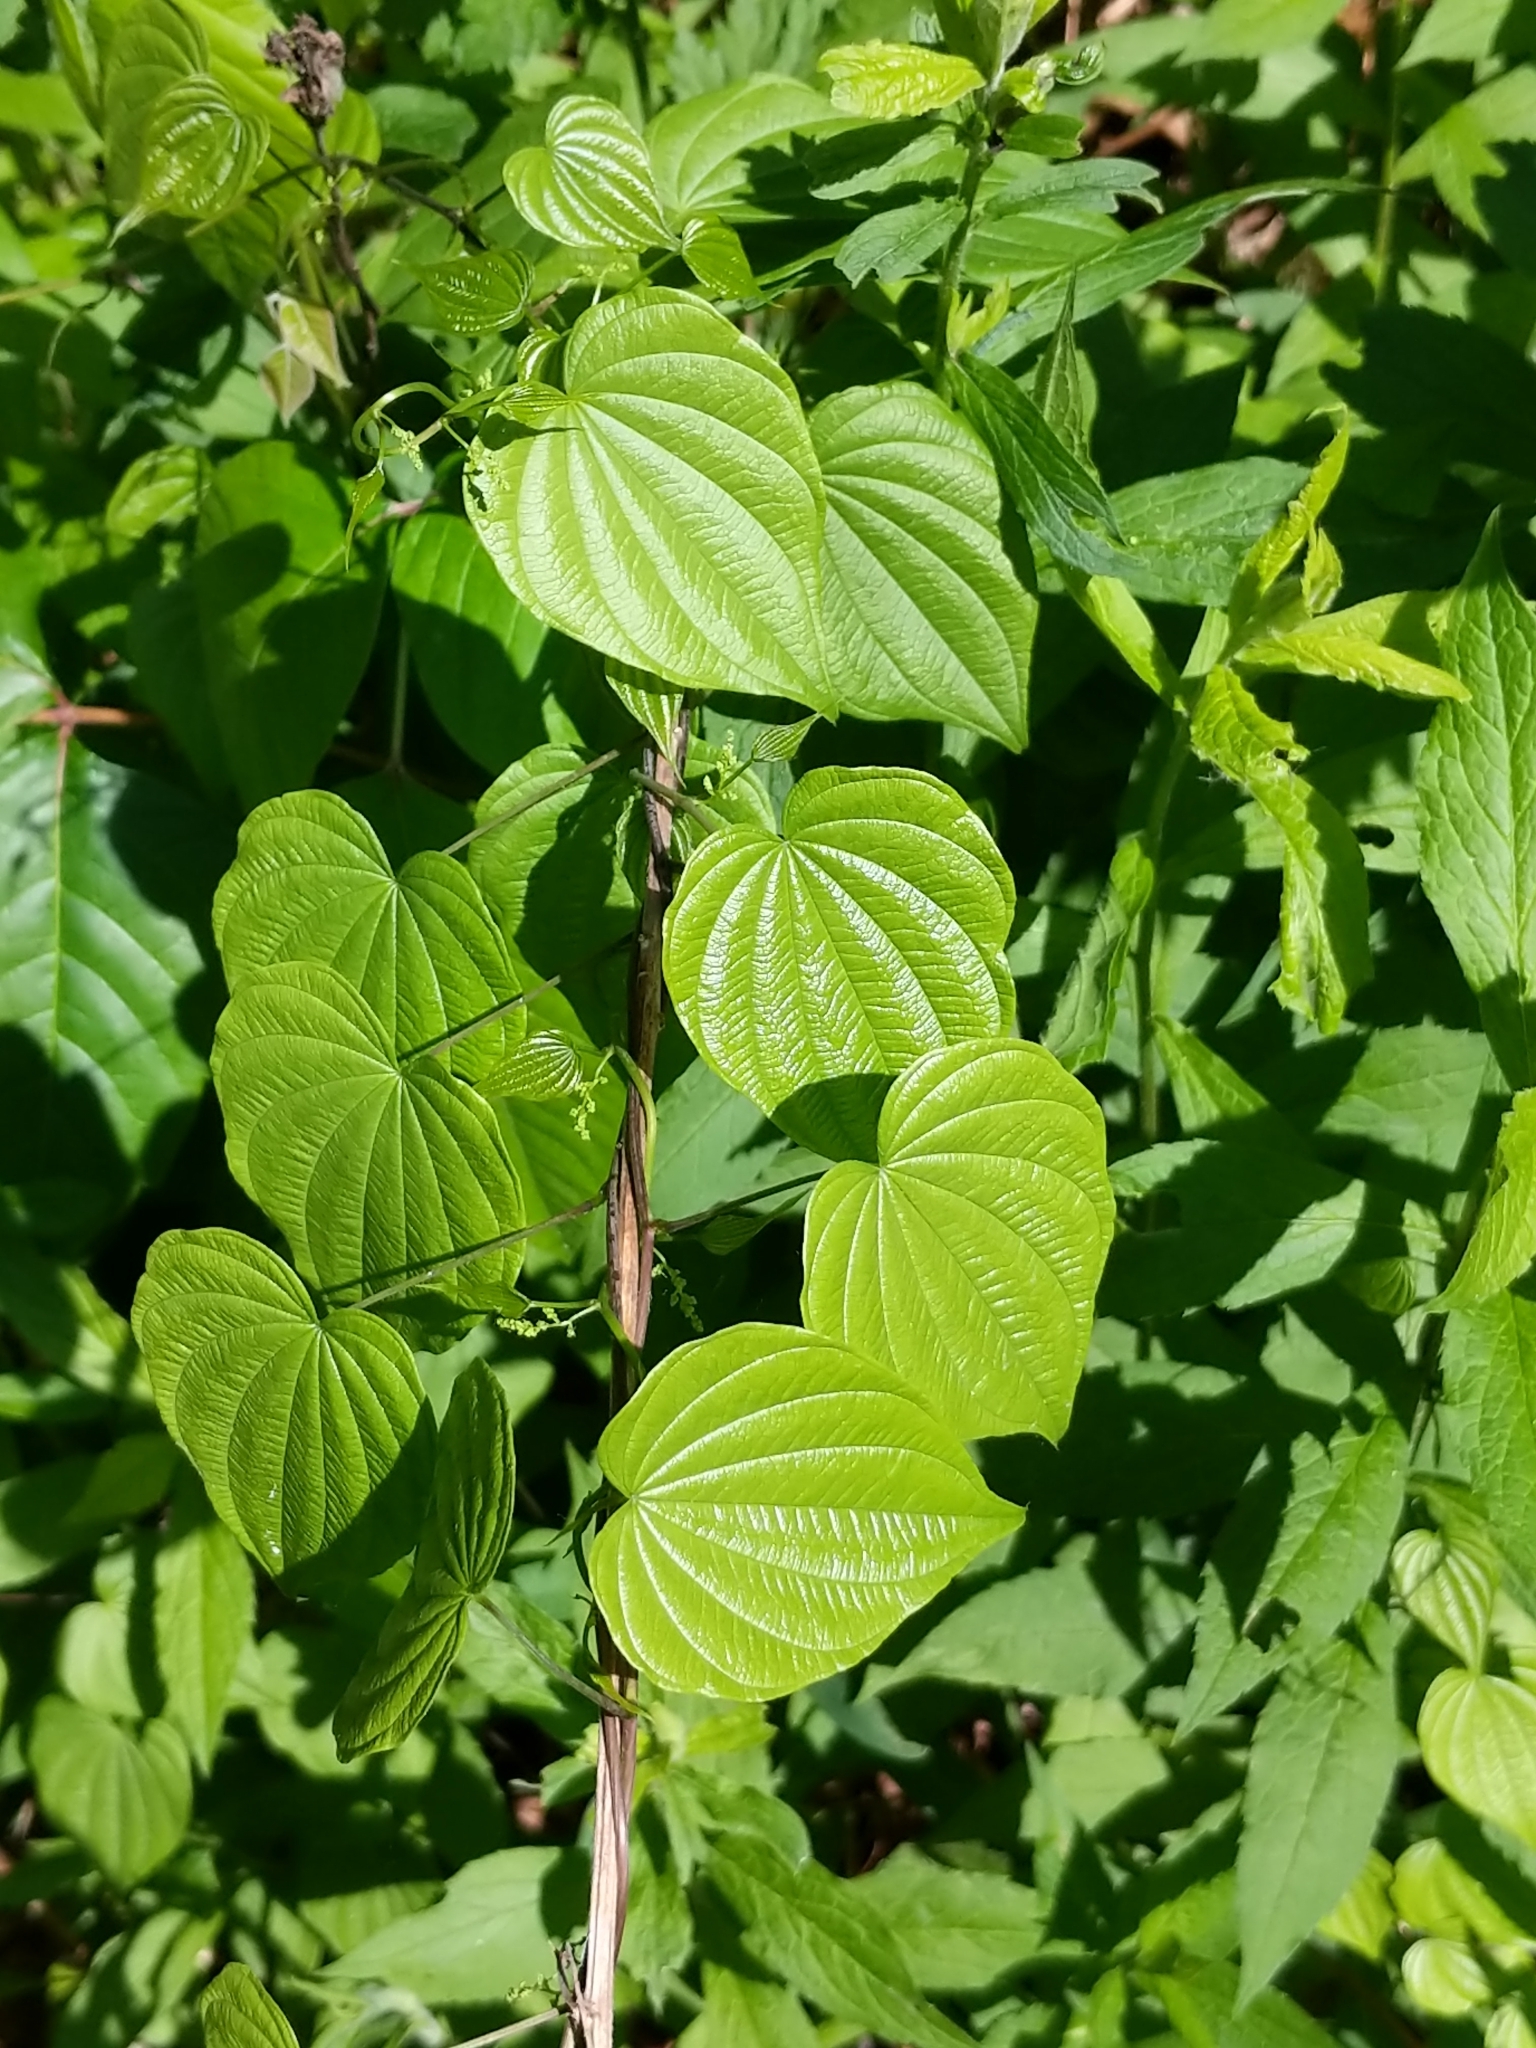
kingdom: Plantae
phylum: Tracheophyta
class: Liliopsida
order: Dioscoreales
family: Dioscoreaceae
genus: Dioscorea
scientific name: Dioscorea villosa
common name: Wild yam
